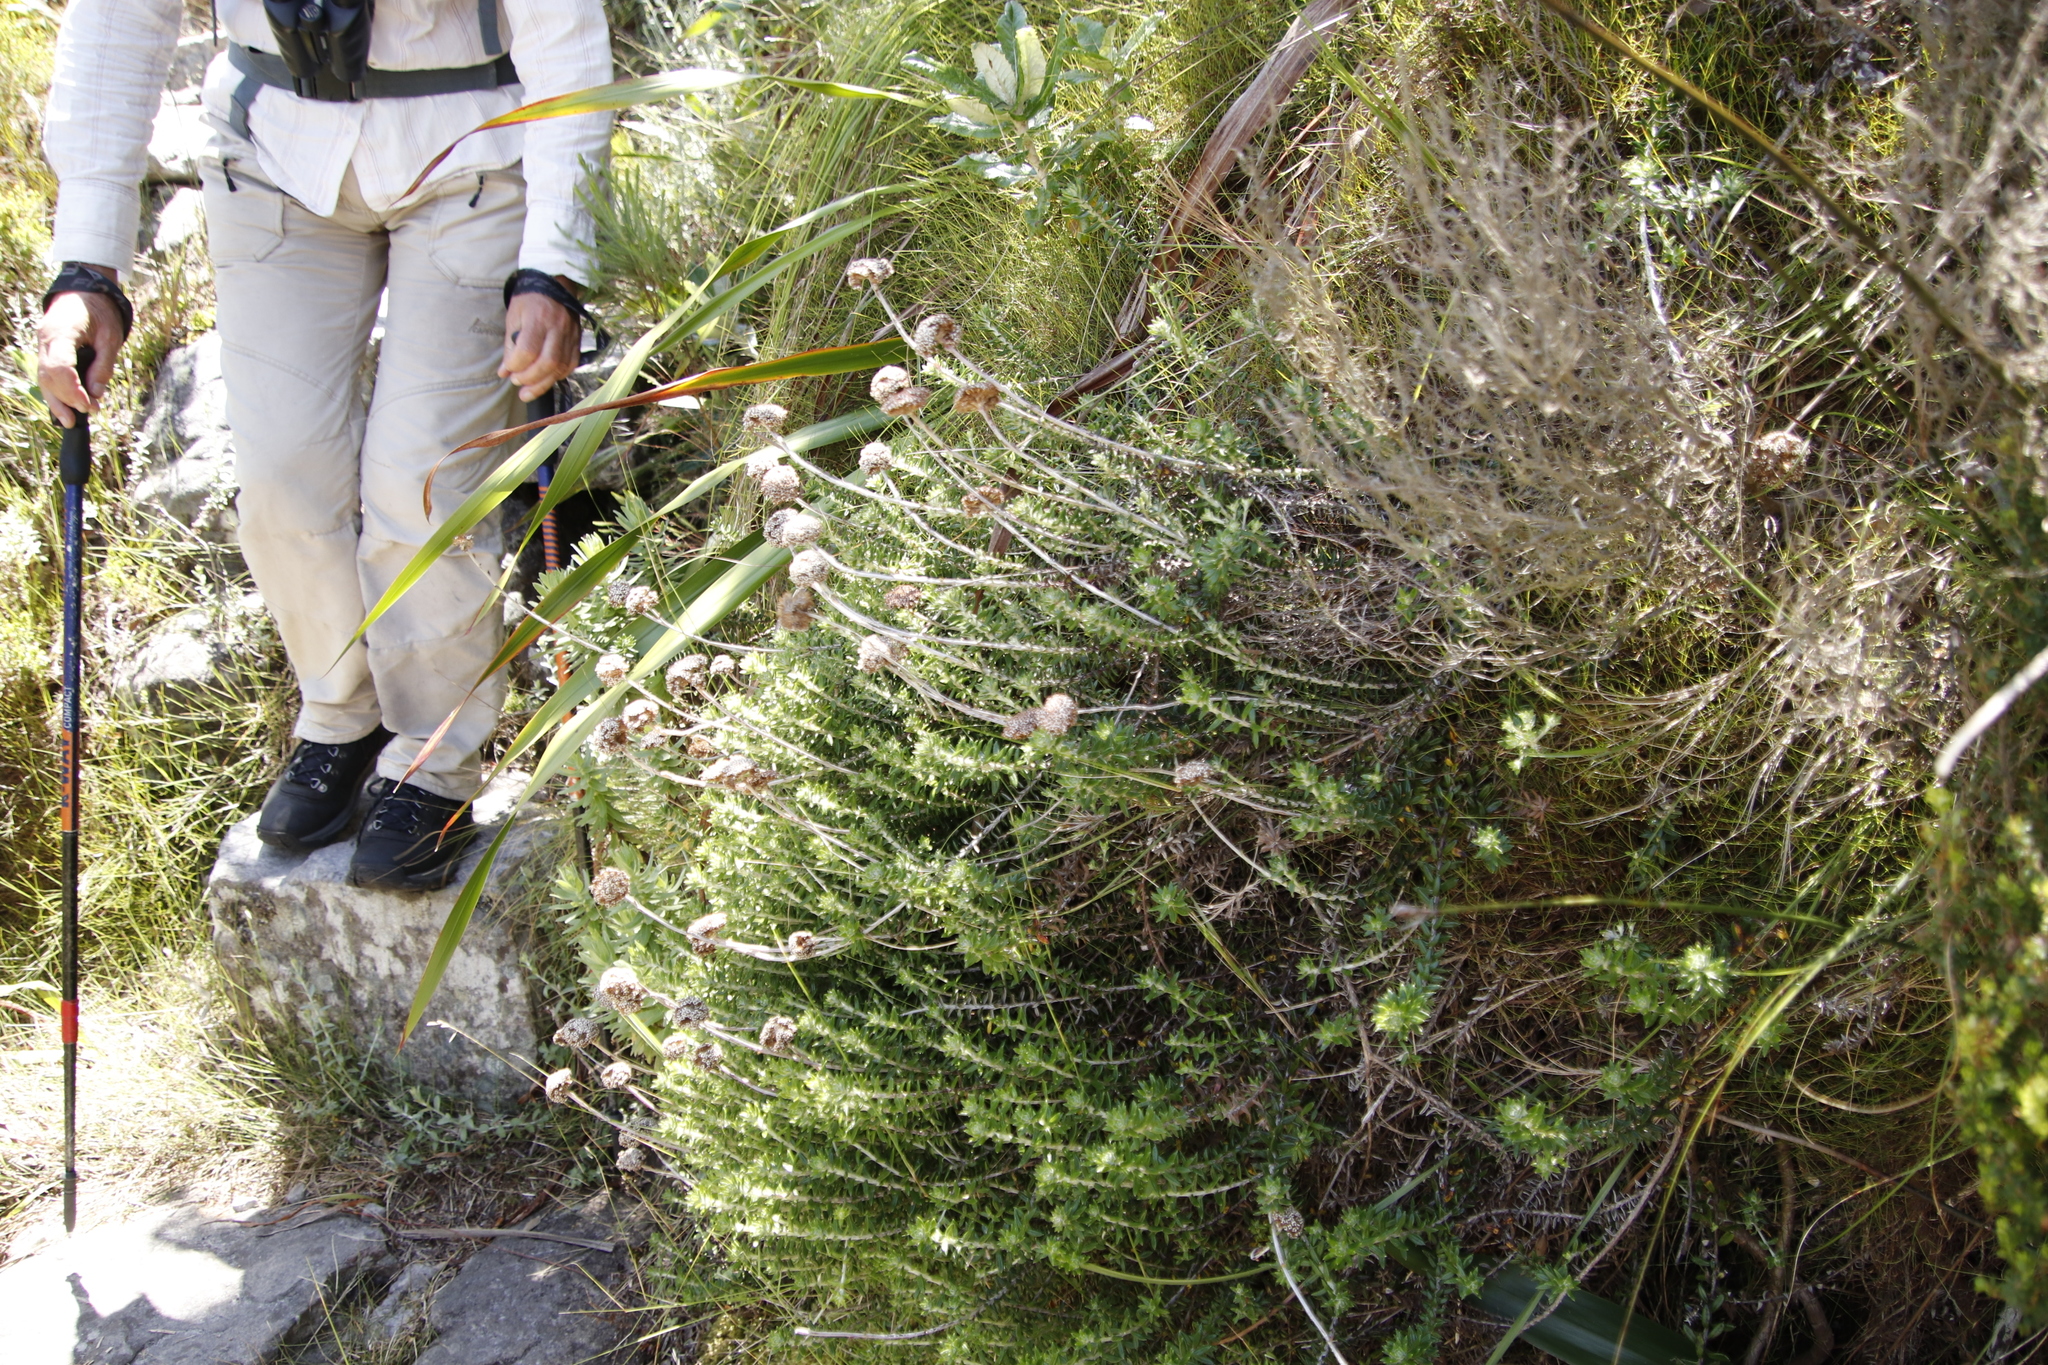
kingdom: Plantae
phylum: Tracheophyta
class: Magnoliopsida
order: Asterales
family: Asteraceae
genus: Anaxeton
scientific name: Anaxeton arborescens
